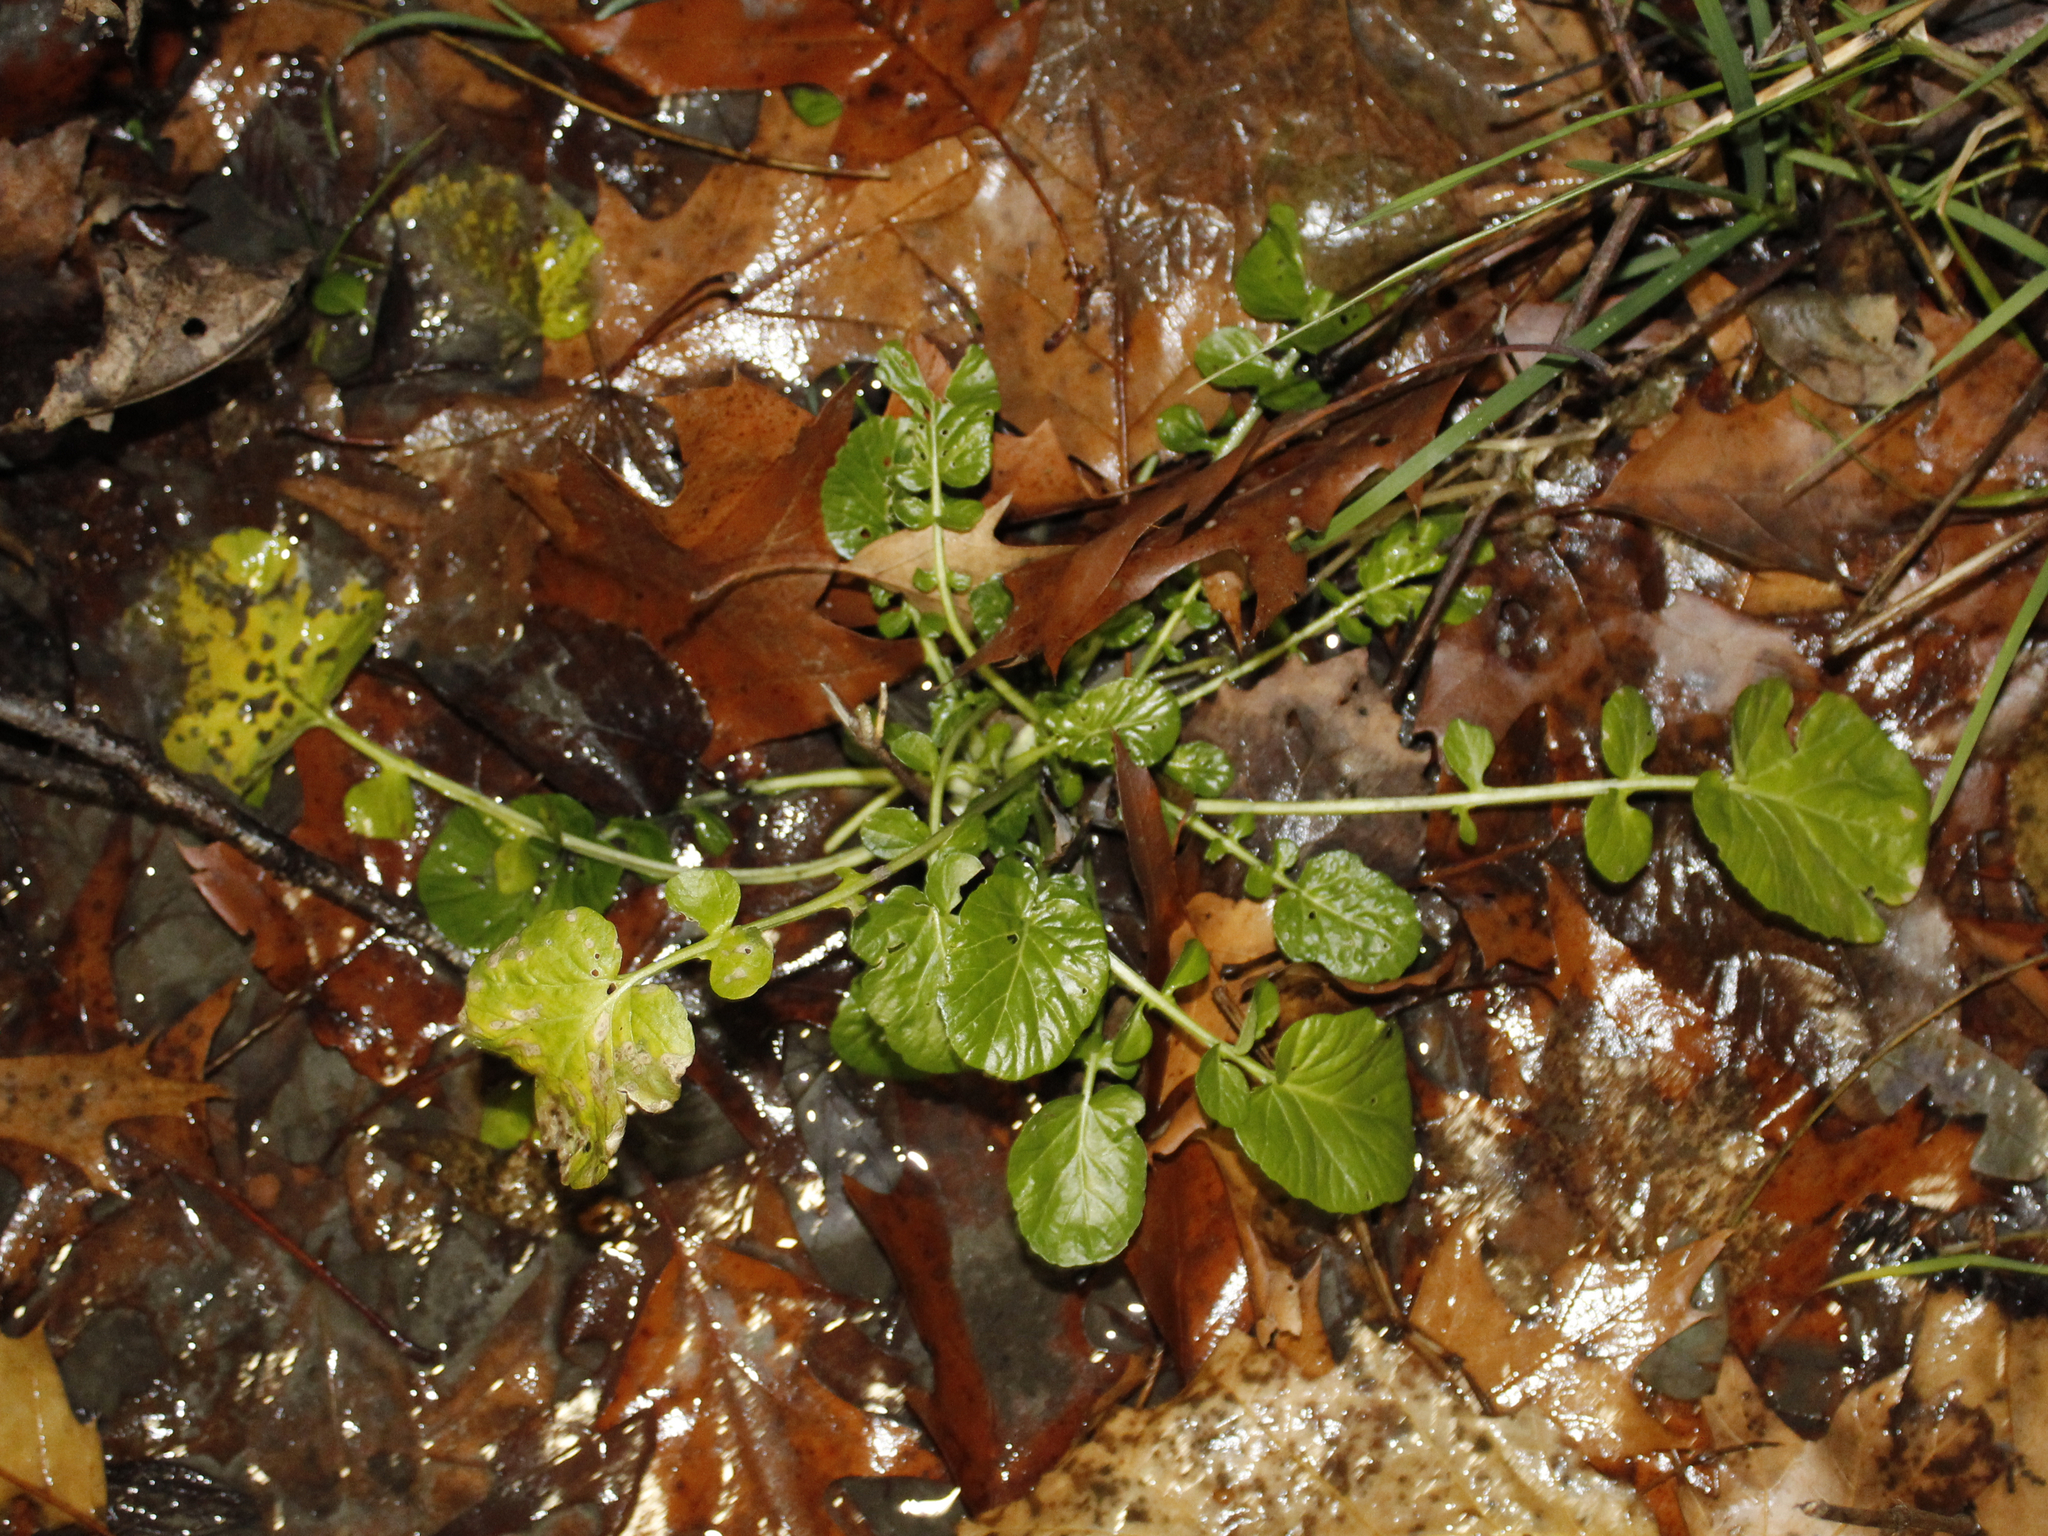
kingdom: Plantae
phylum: Tracheophyta
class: Magnoliopsida
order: Brassicales
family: Brassicaceae
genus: Barbarea
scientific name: Barbarea vulgaris
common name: Cressy-greens
